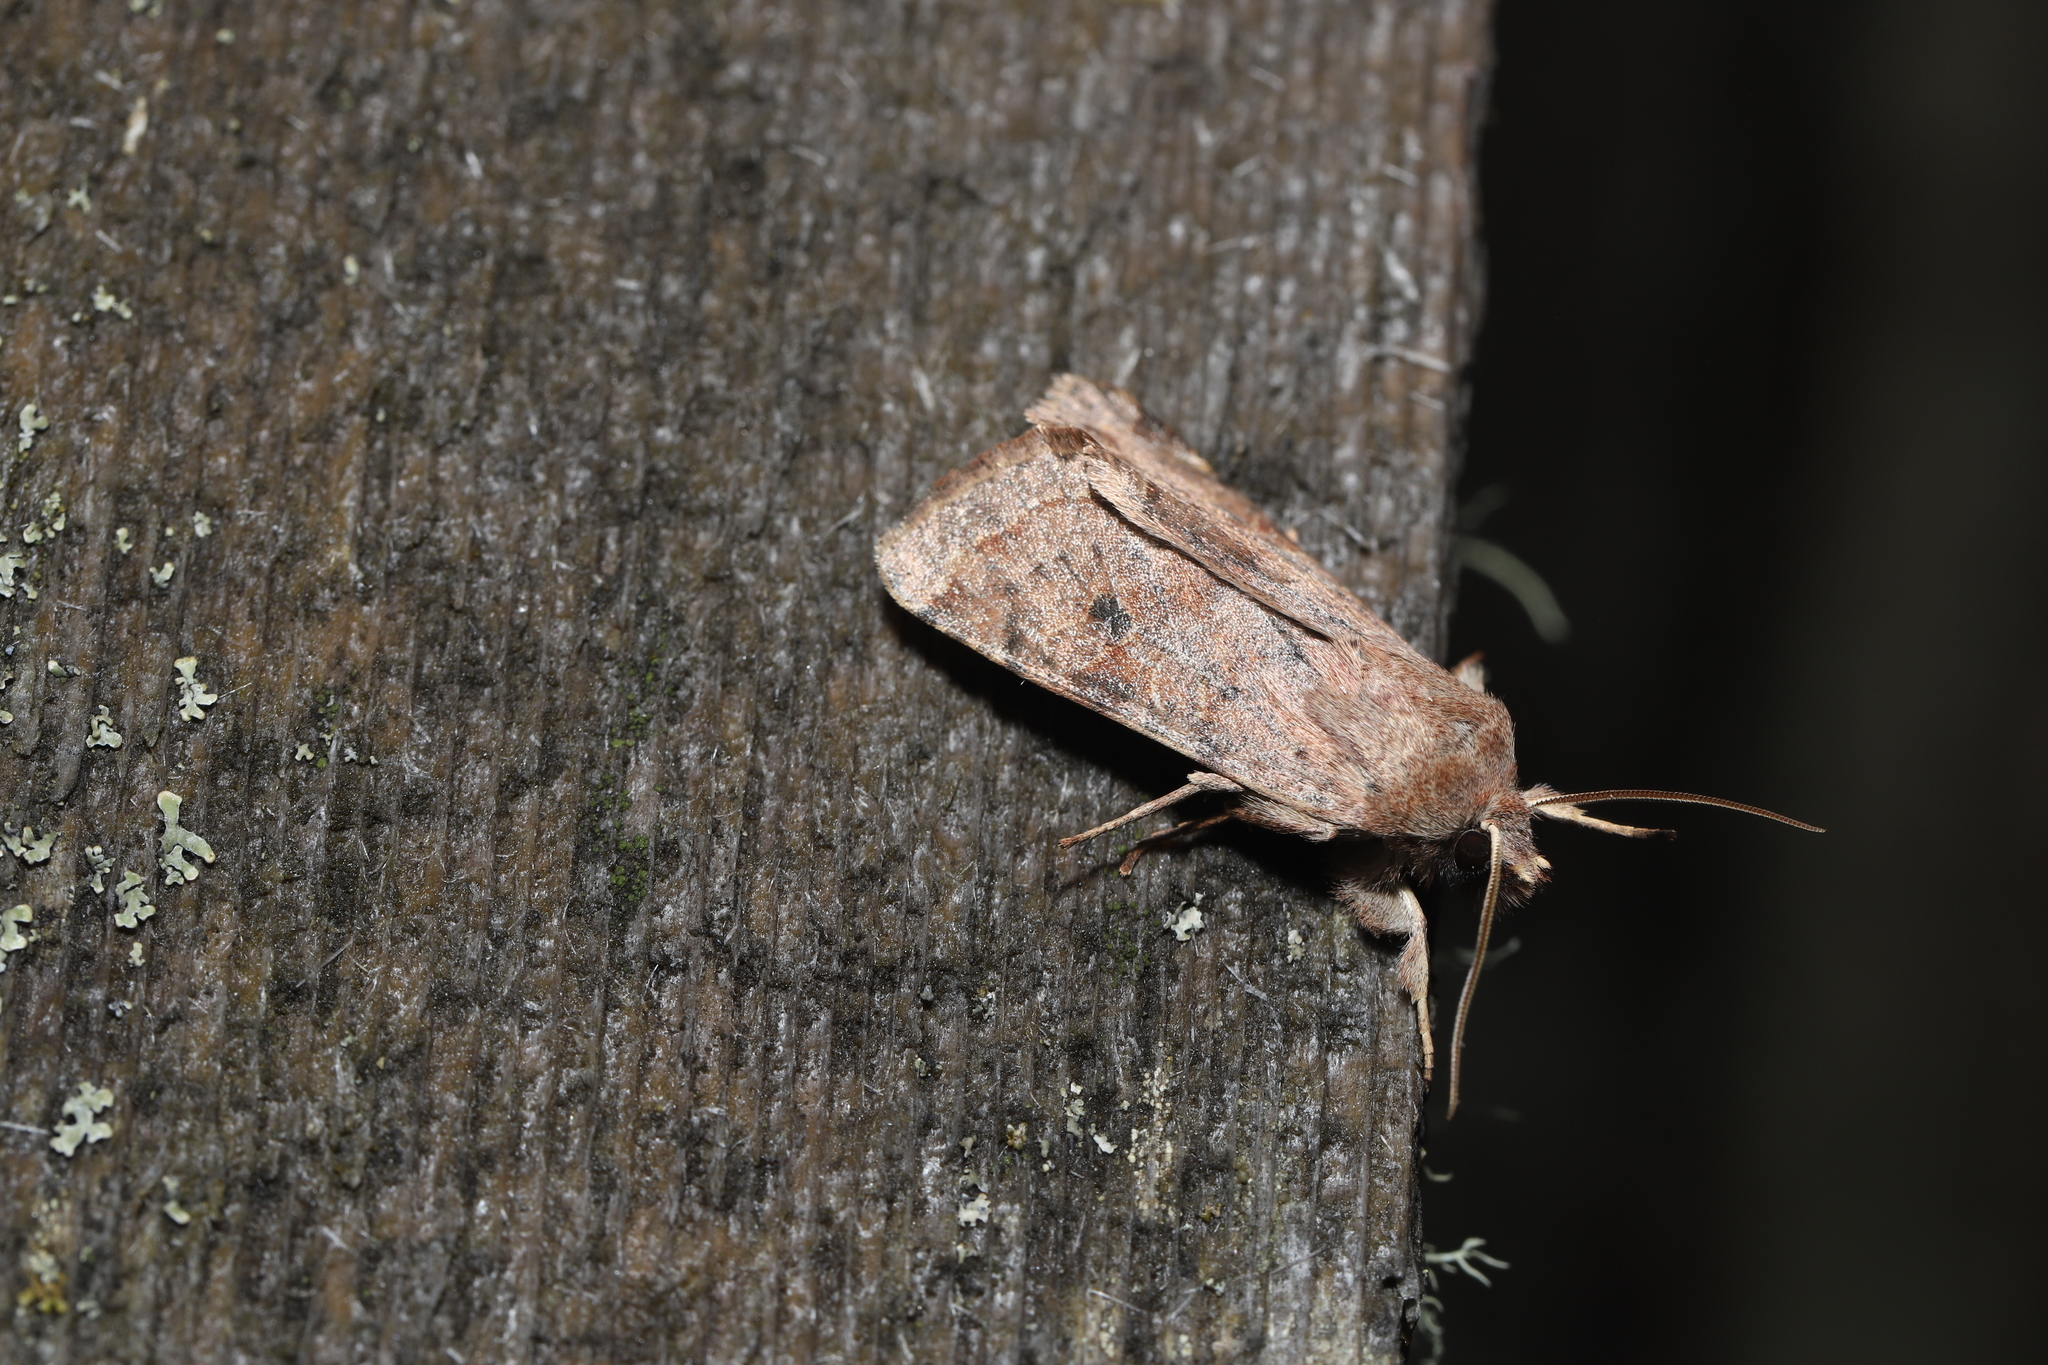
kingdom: Animalia
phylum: Arthropoda
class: Insecta
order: Lepidoptera
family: Noctuidae
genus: Orthosia
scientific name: Orthosia hibisci
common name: Green fruitworm
